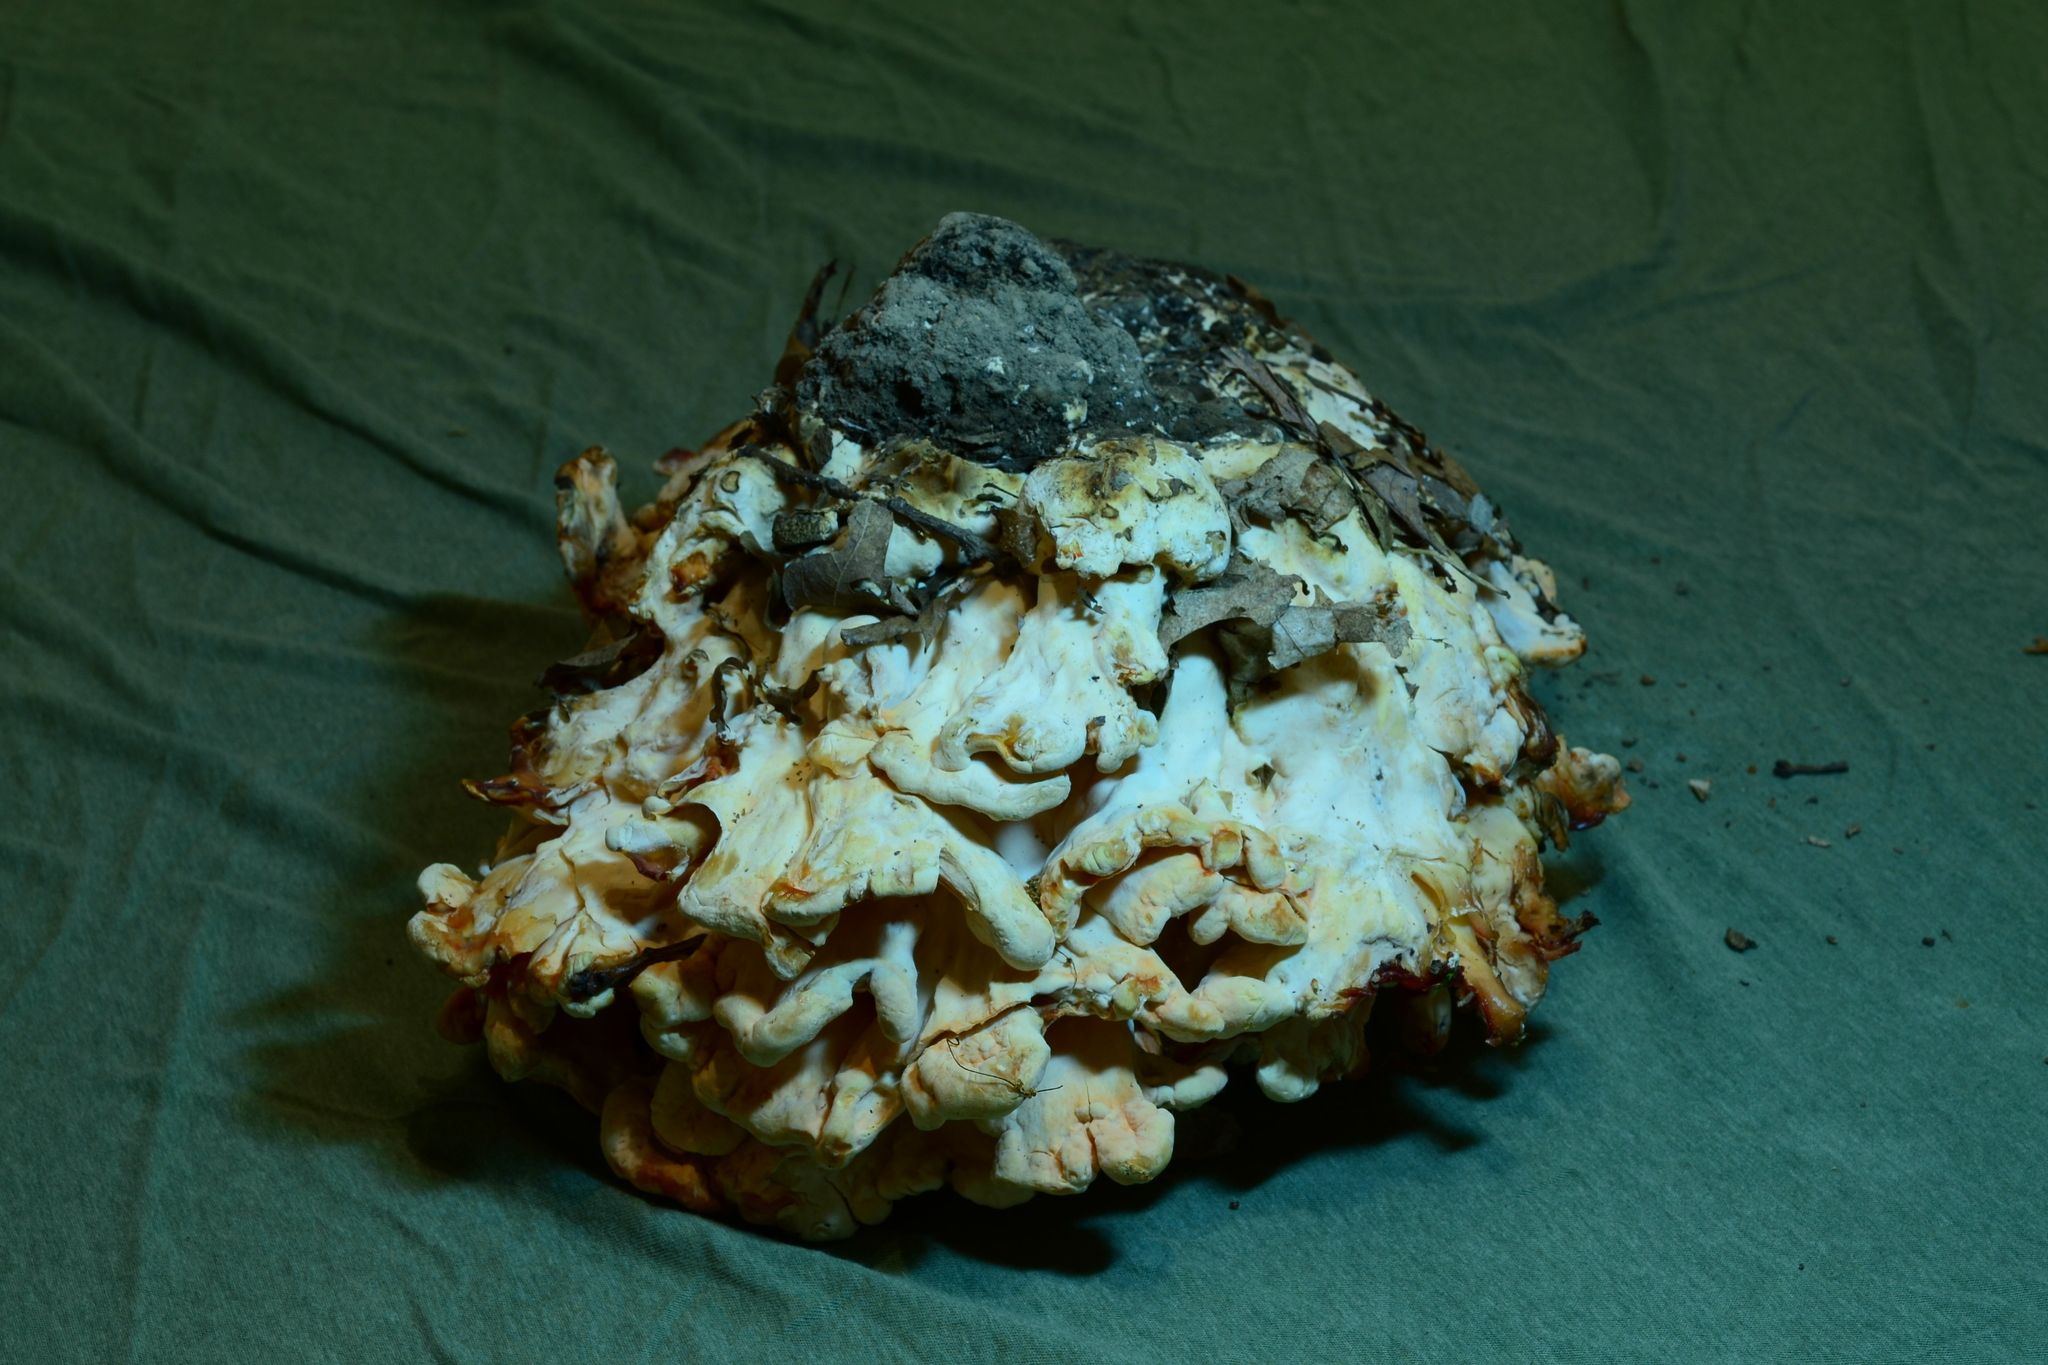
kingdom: Fungi
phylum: Basidiomycota
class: Agaricomycetes
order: Polyporales
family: Laetiporaceae
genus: Laetiporus
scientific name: Laetiporus sulphureus
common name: Chicken of the woods
